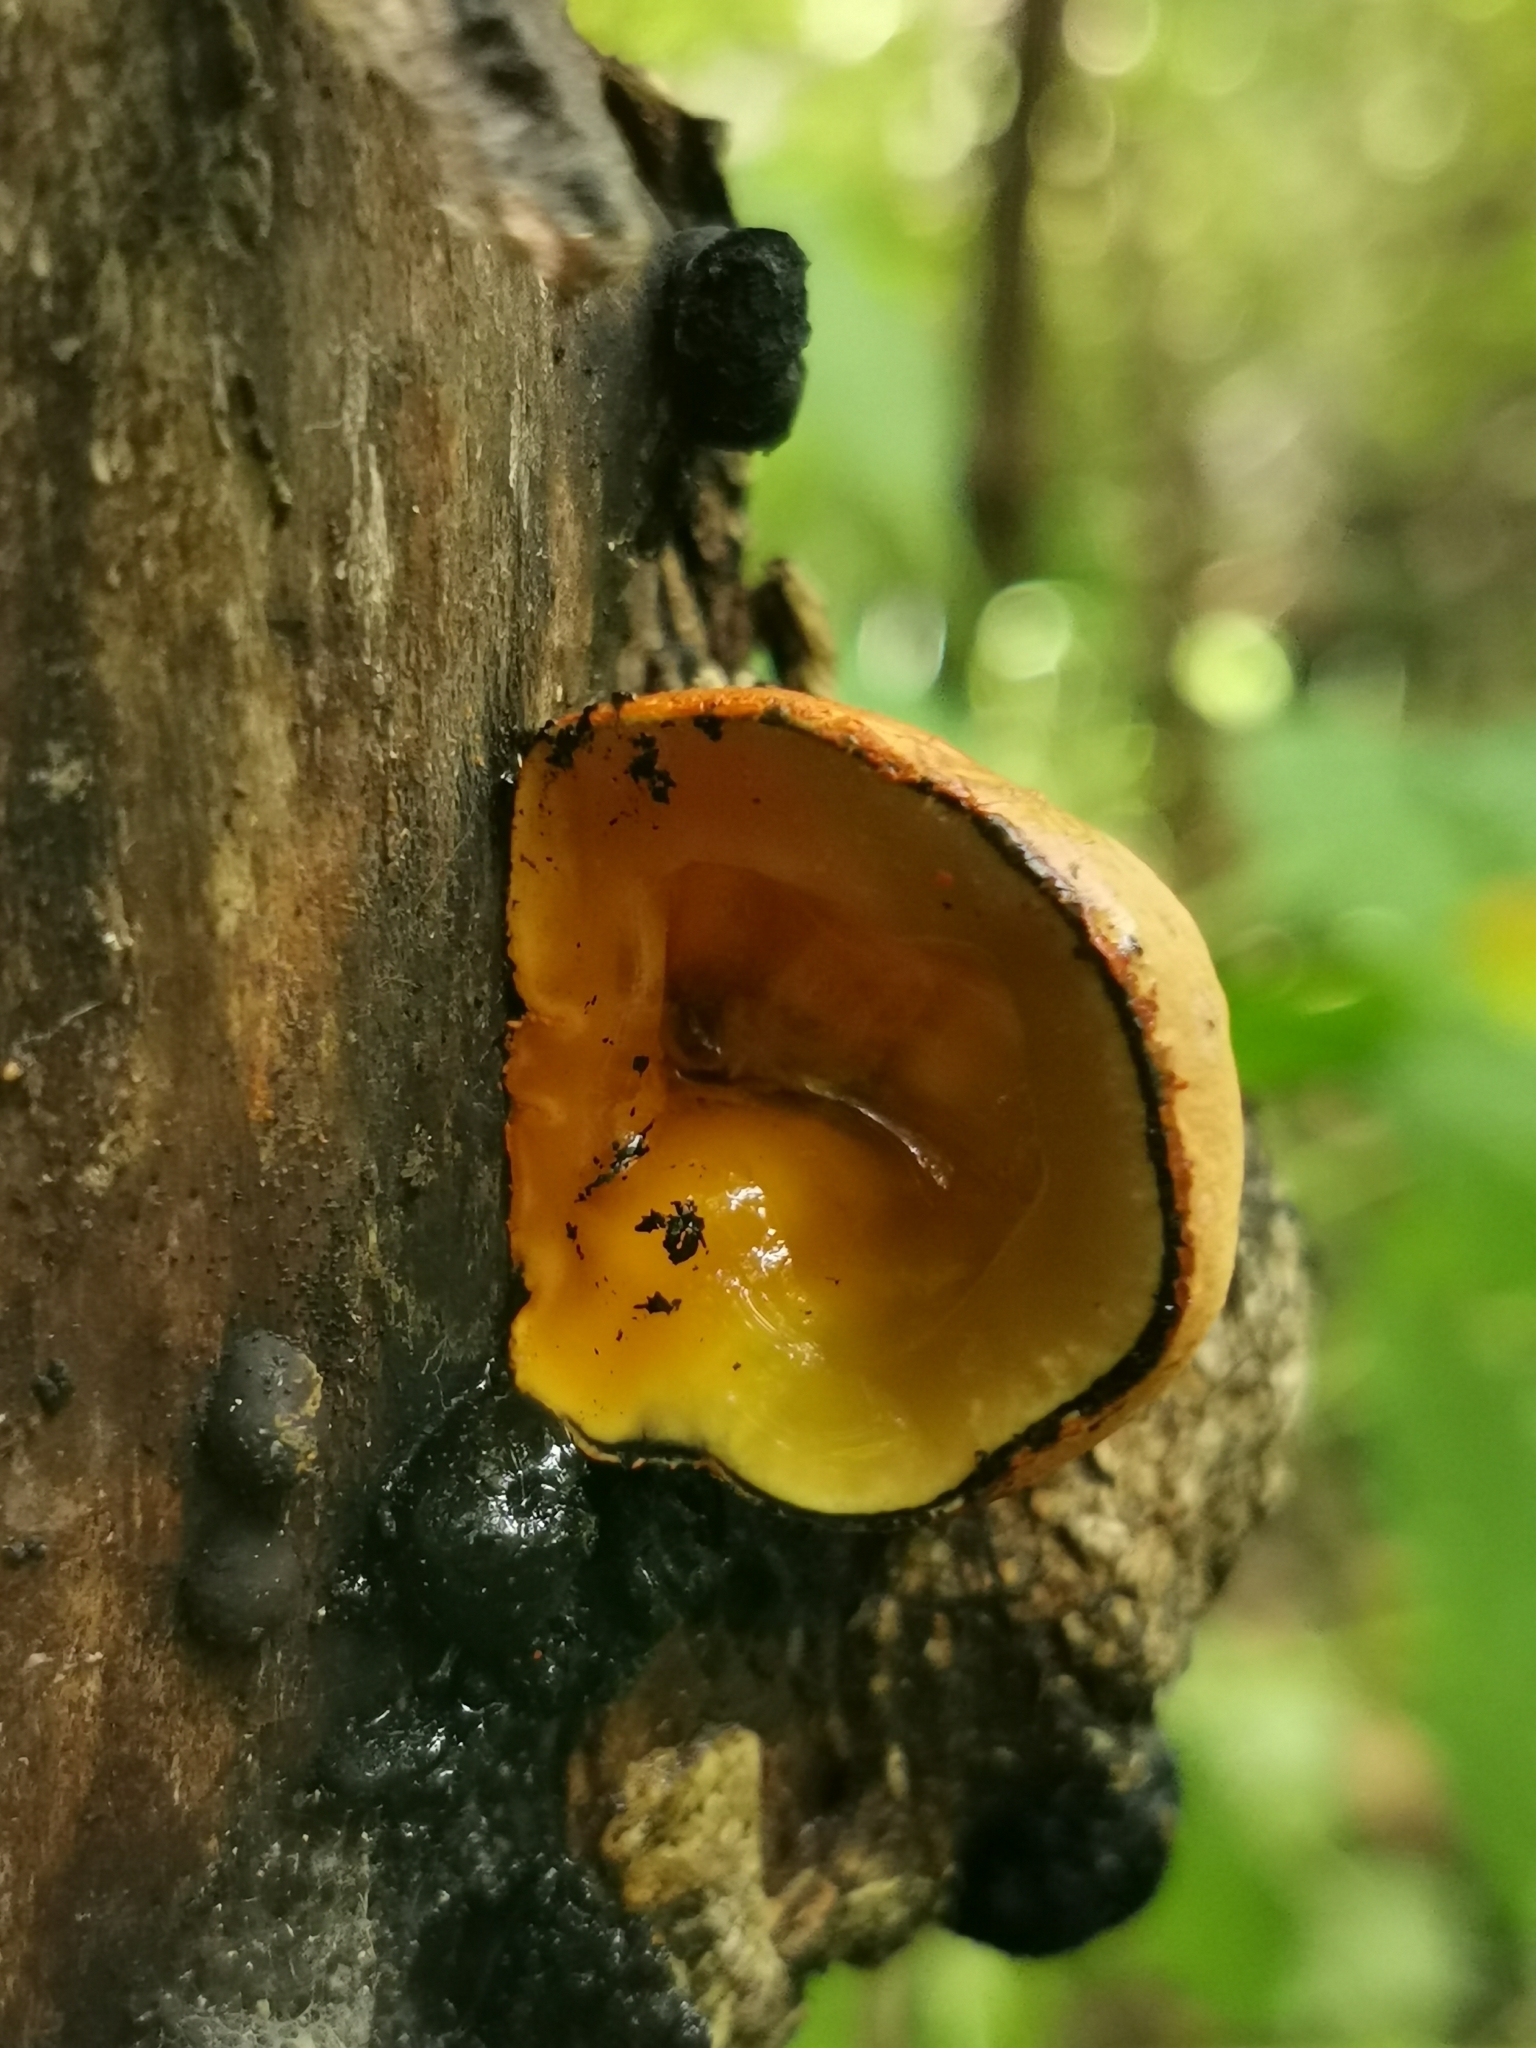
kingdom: Fungi
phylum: Ascomycota
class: Sordariomycetes
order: Xylariales
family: Hypoxylaceae
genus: Entonaema
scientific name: Entonaema cinnabarinum
